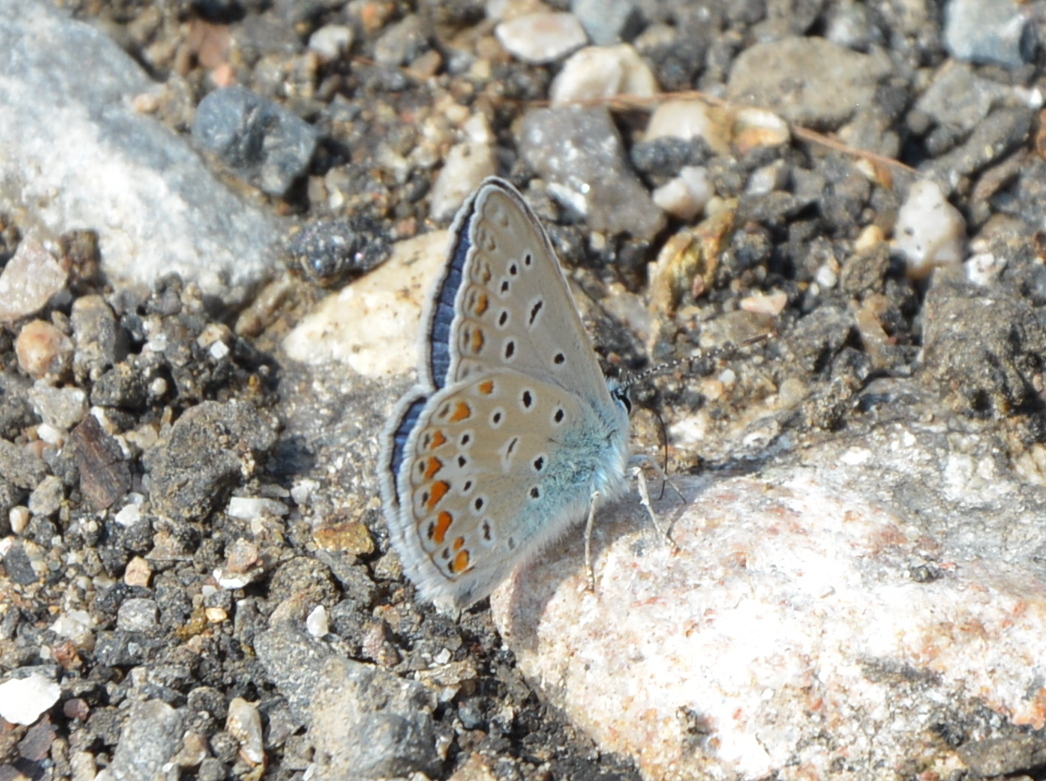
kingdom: Animalia
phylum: Arthropoda
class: Insecta
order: Lepidoptera
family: Lycaenidae
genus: Polyommatus
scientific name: Polyommatus icarus
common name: Common blue
